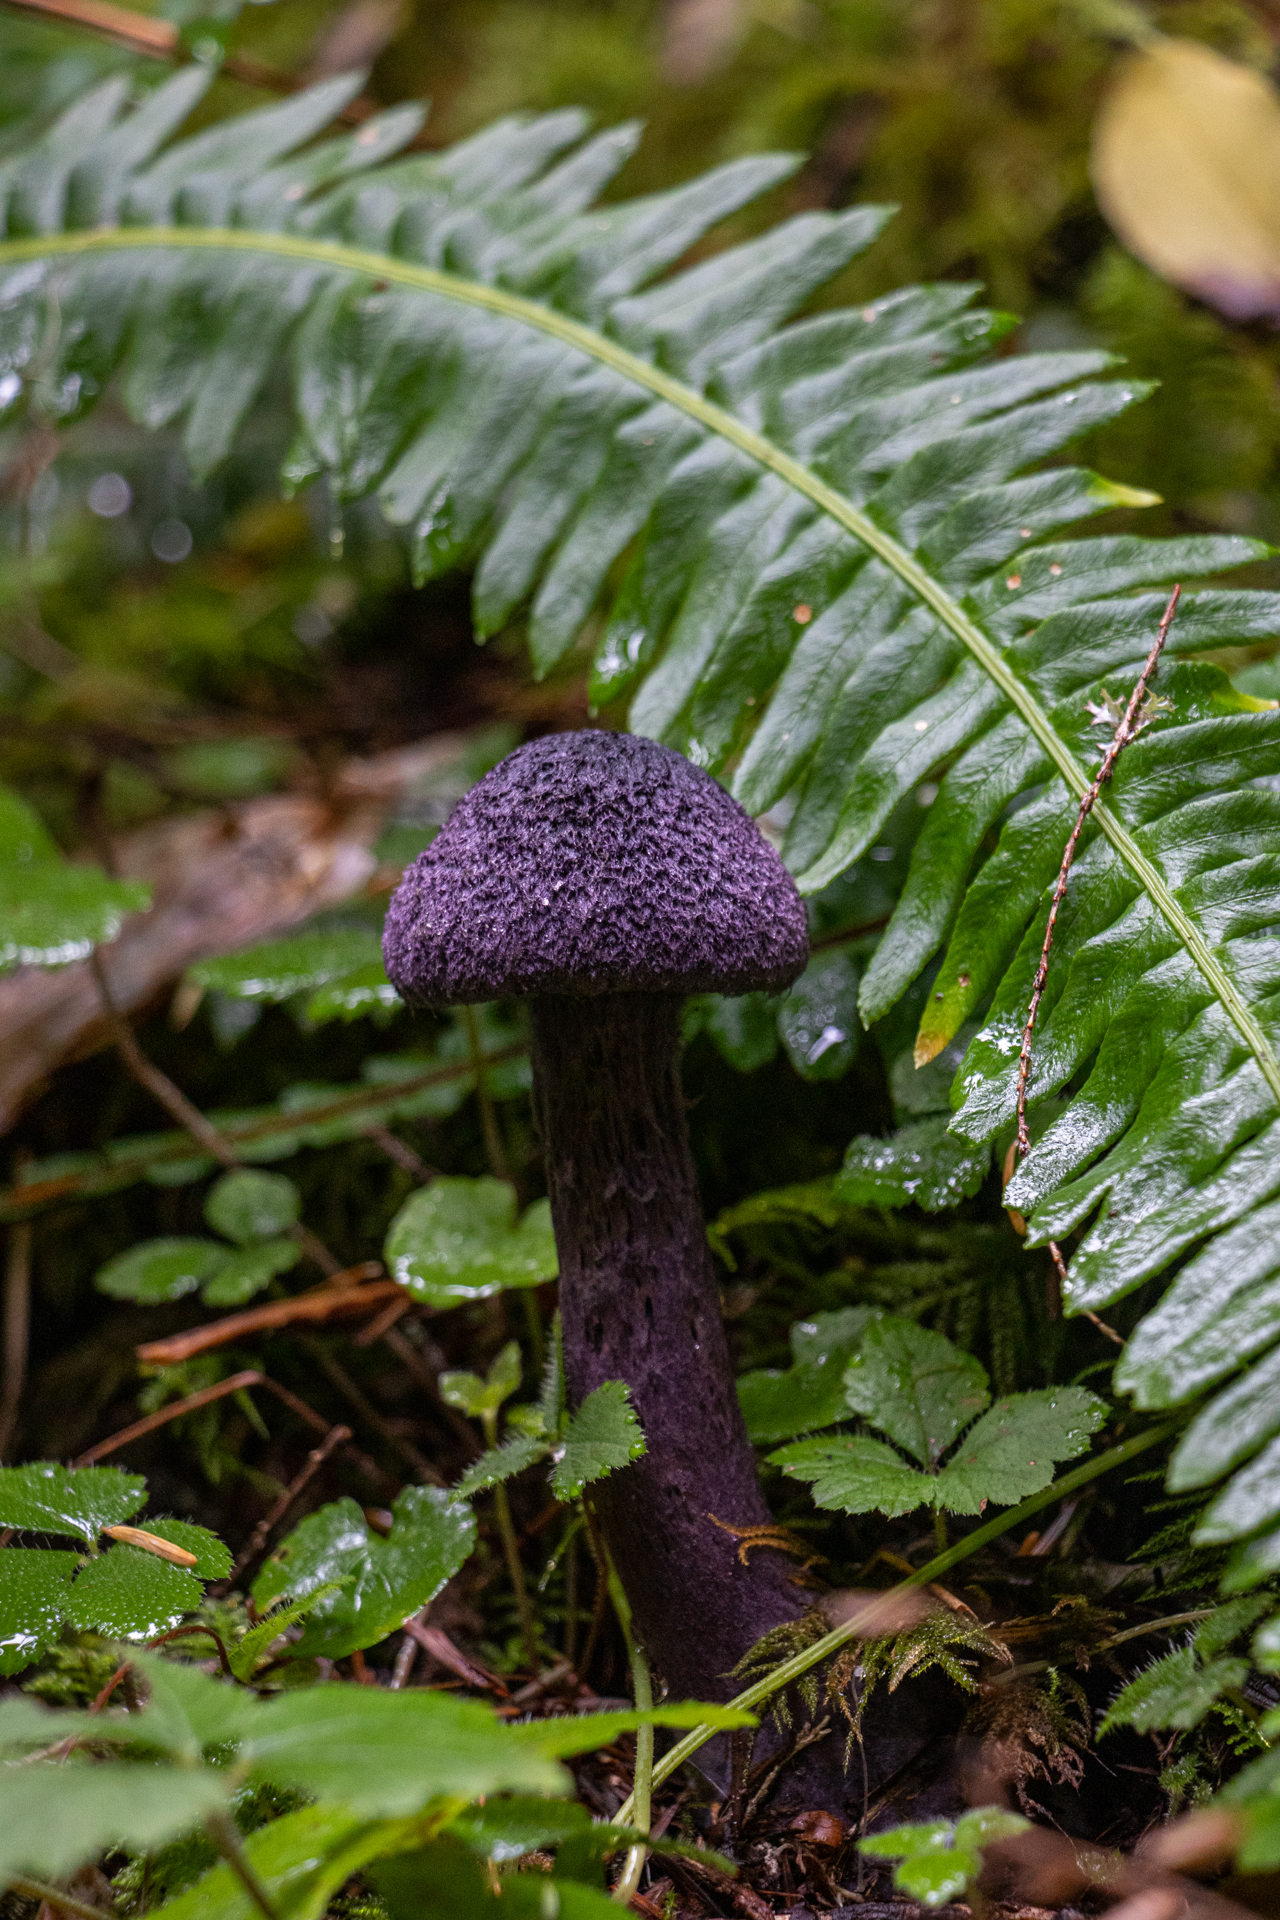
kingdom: Fungi
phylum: Basidiomycota
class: Agaricomycetes
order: Agaricales
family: Cortinariaceae
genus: Cortinarius
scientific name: Cortinarius violaceus
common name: Violet webcap
